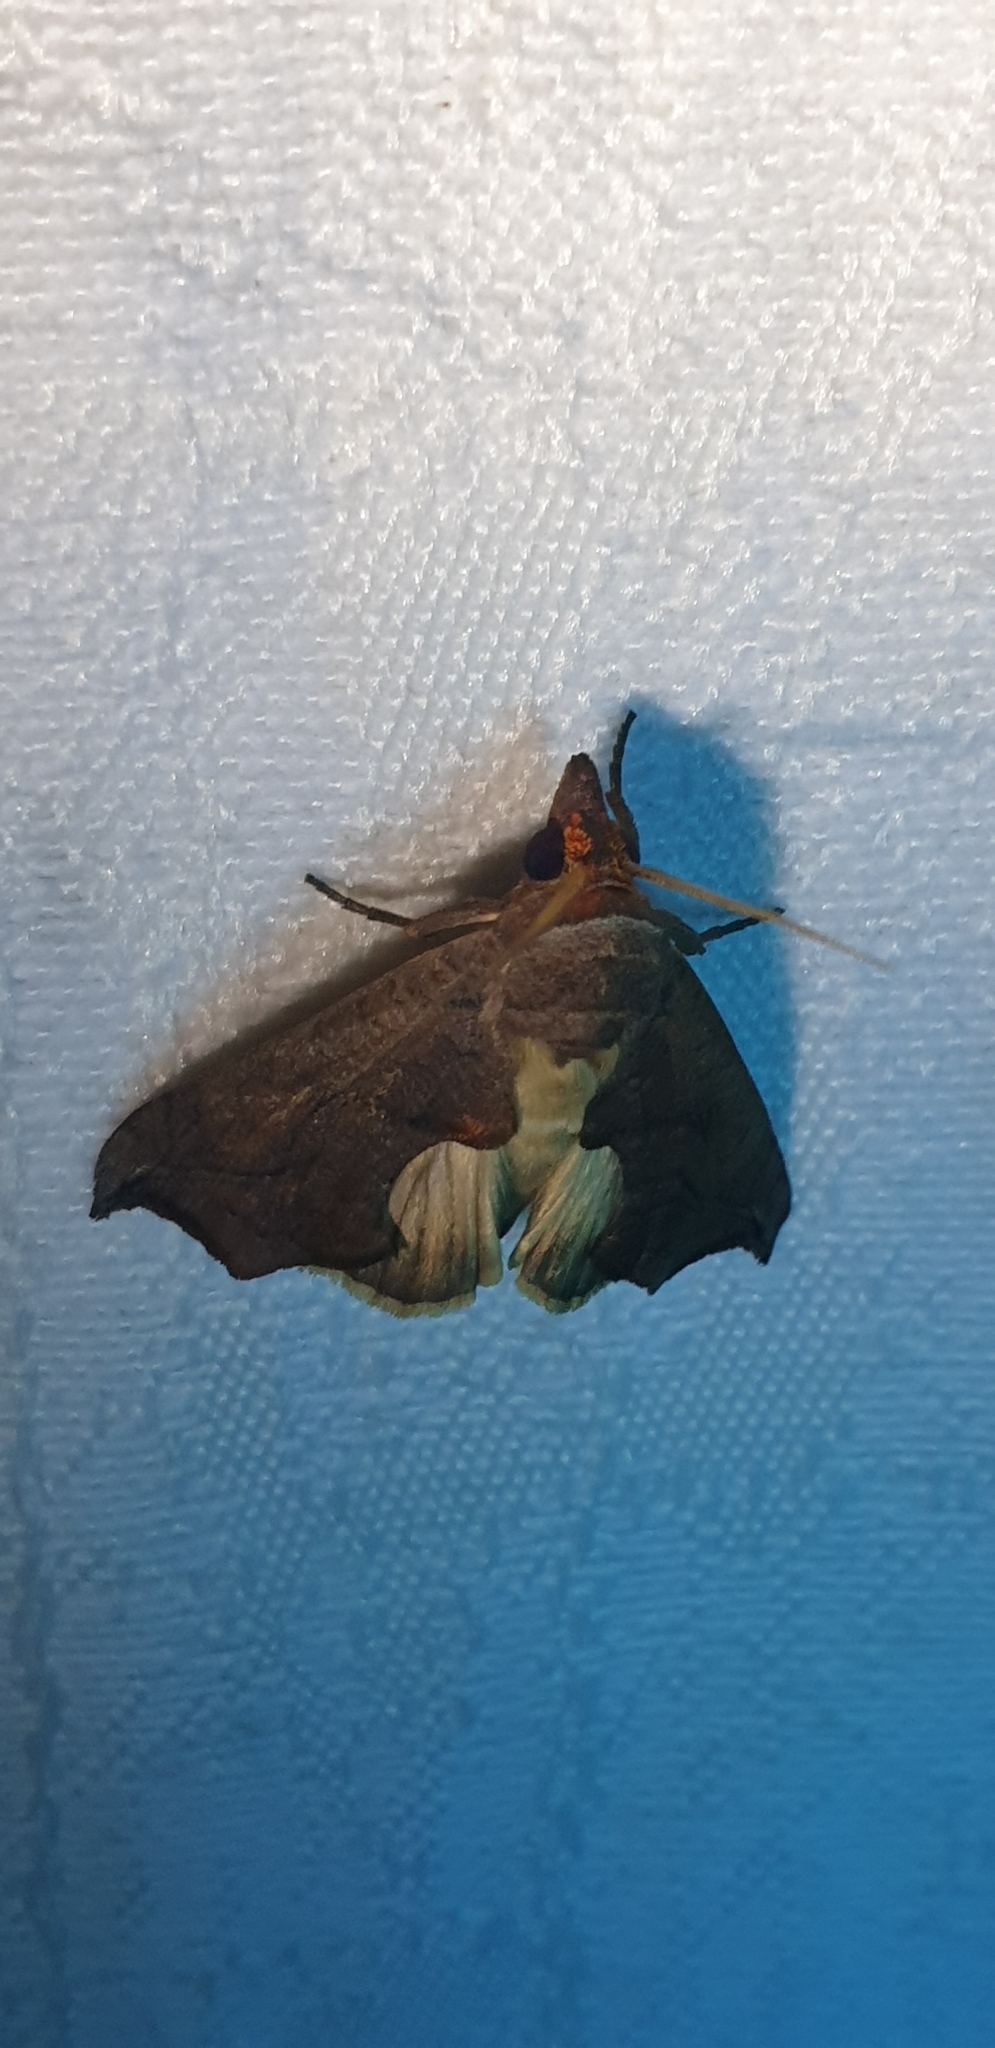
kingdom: Animalia
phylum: Arthropoda
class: Insecta
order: Lepidoptera
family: Erebidae
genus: Oraesia
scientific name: Oraesia argyrosigna
